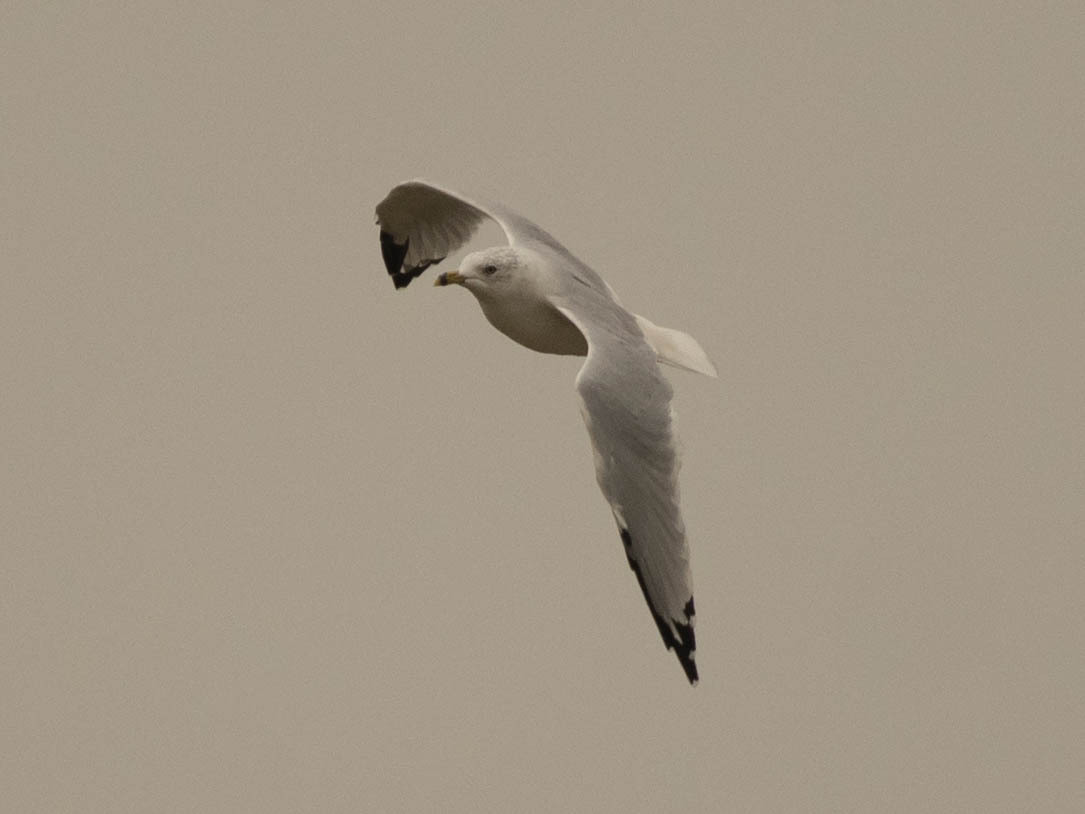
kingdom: Animalia
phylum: Chordata
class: Aves
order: Charadriiformes
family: Laridae
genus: Larus
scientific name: Larus delawarensis
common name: Ring-billed gull
